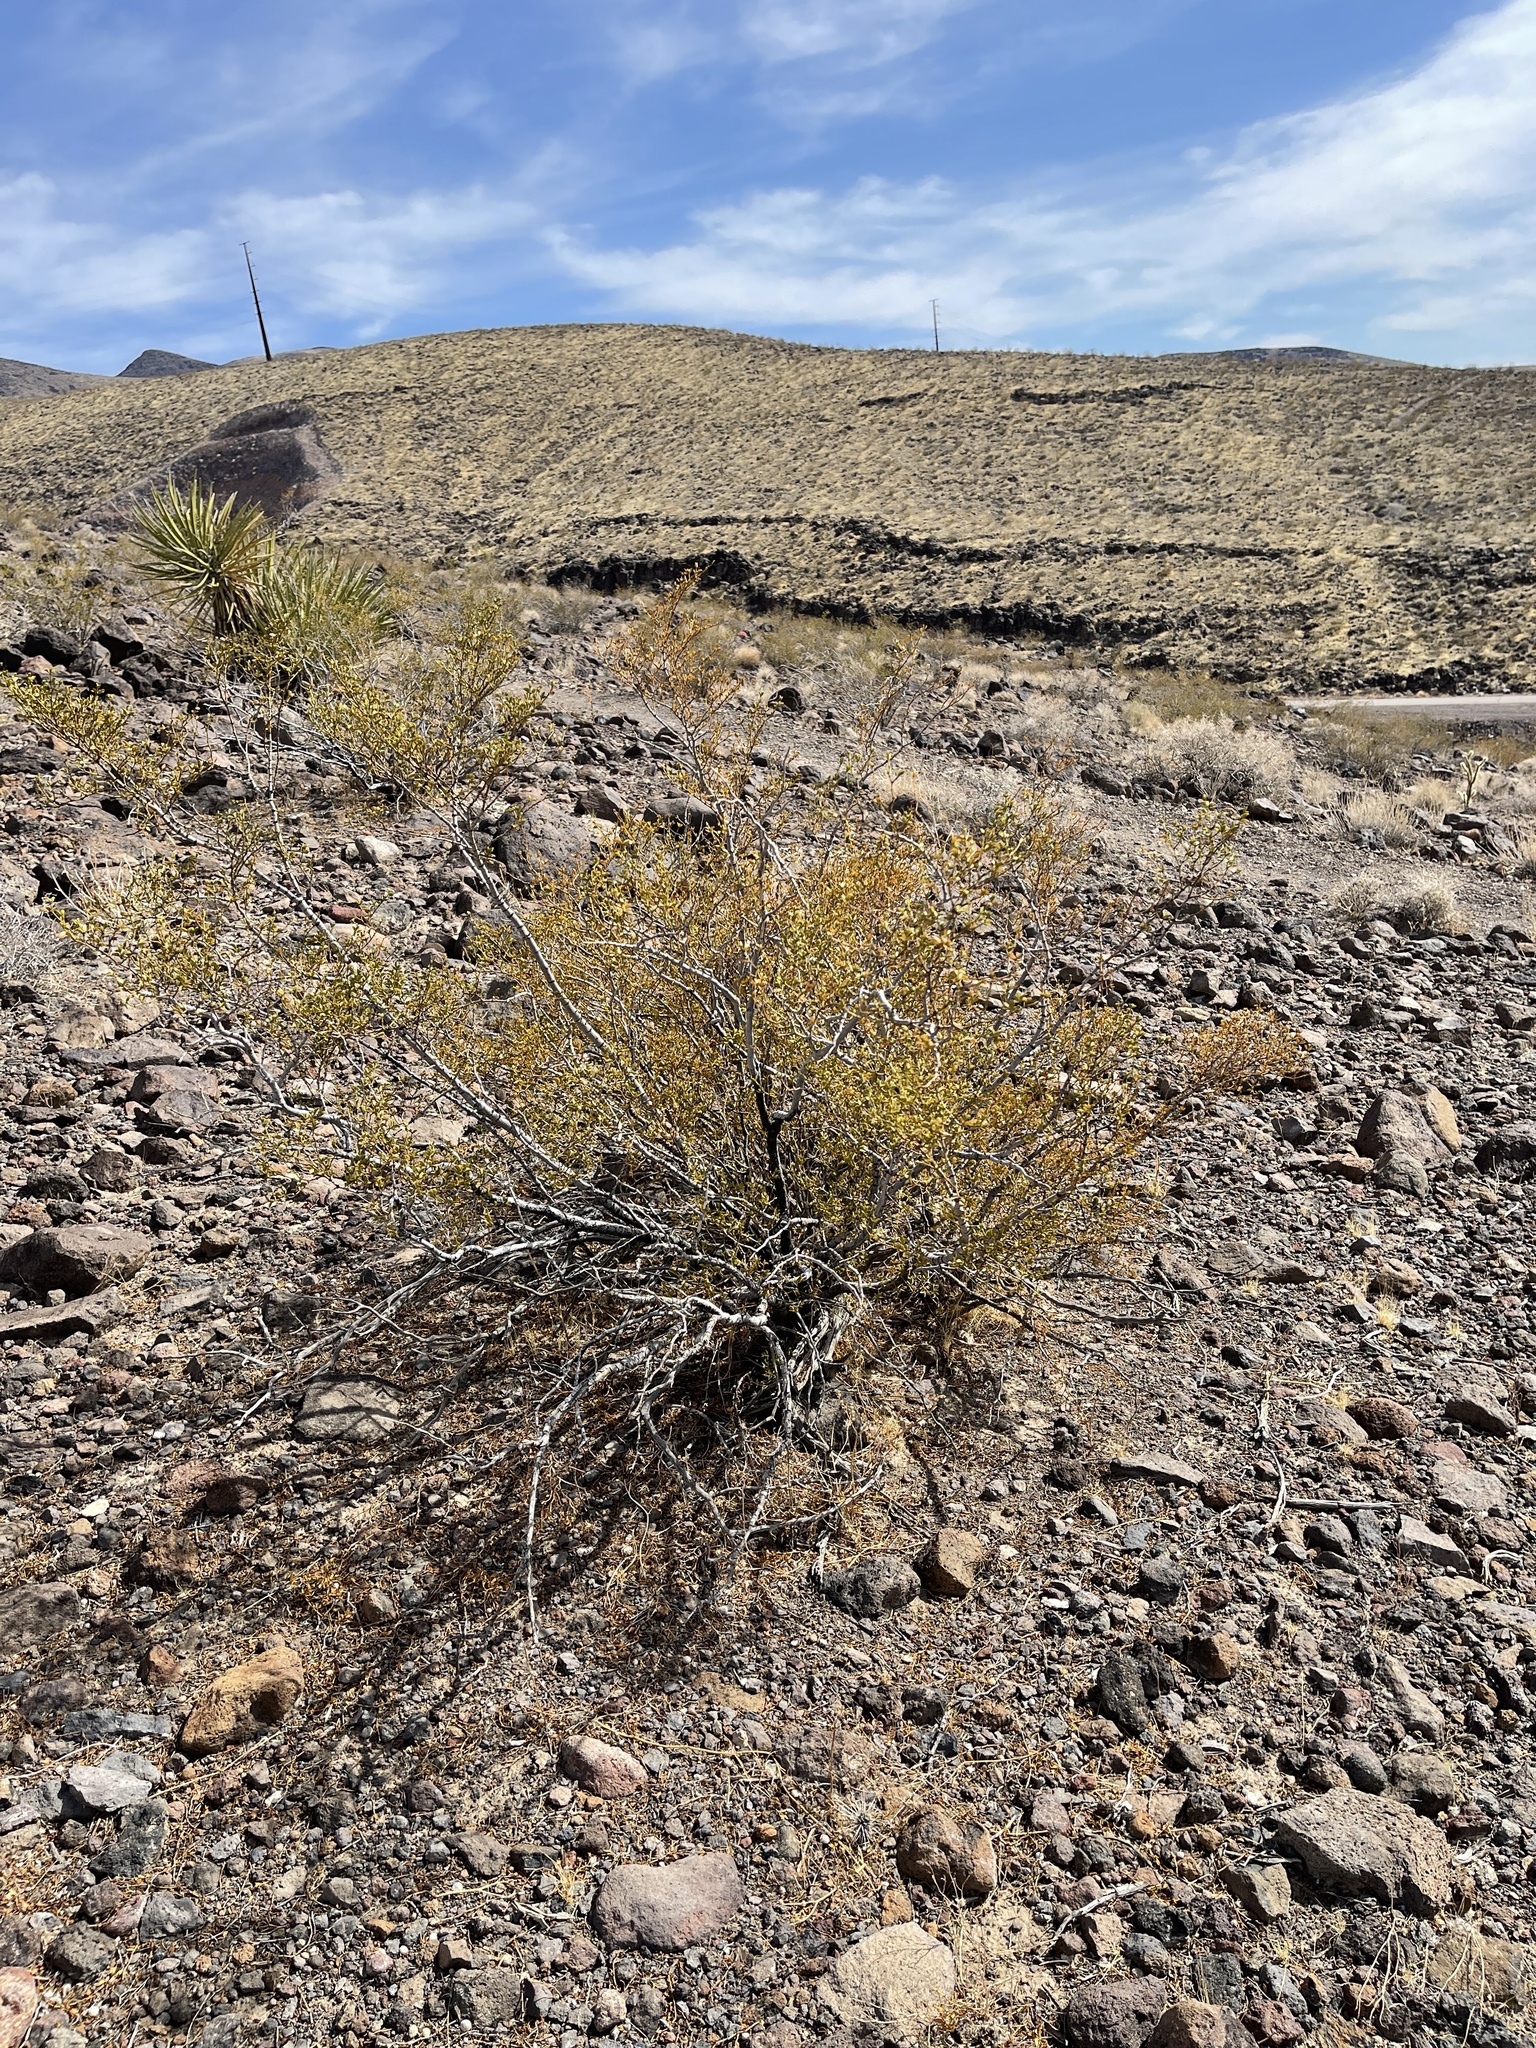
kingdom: Plantae
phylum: Tracheophyta
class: Magnoliopsida
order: Zygophyllales
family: Zygophyllaceae
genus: Larrea
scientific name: Larrea tridentata
